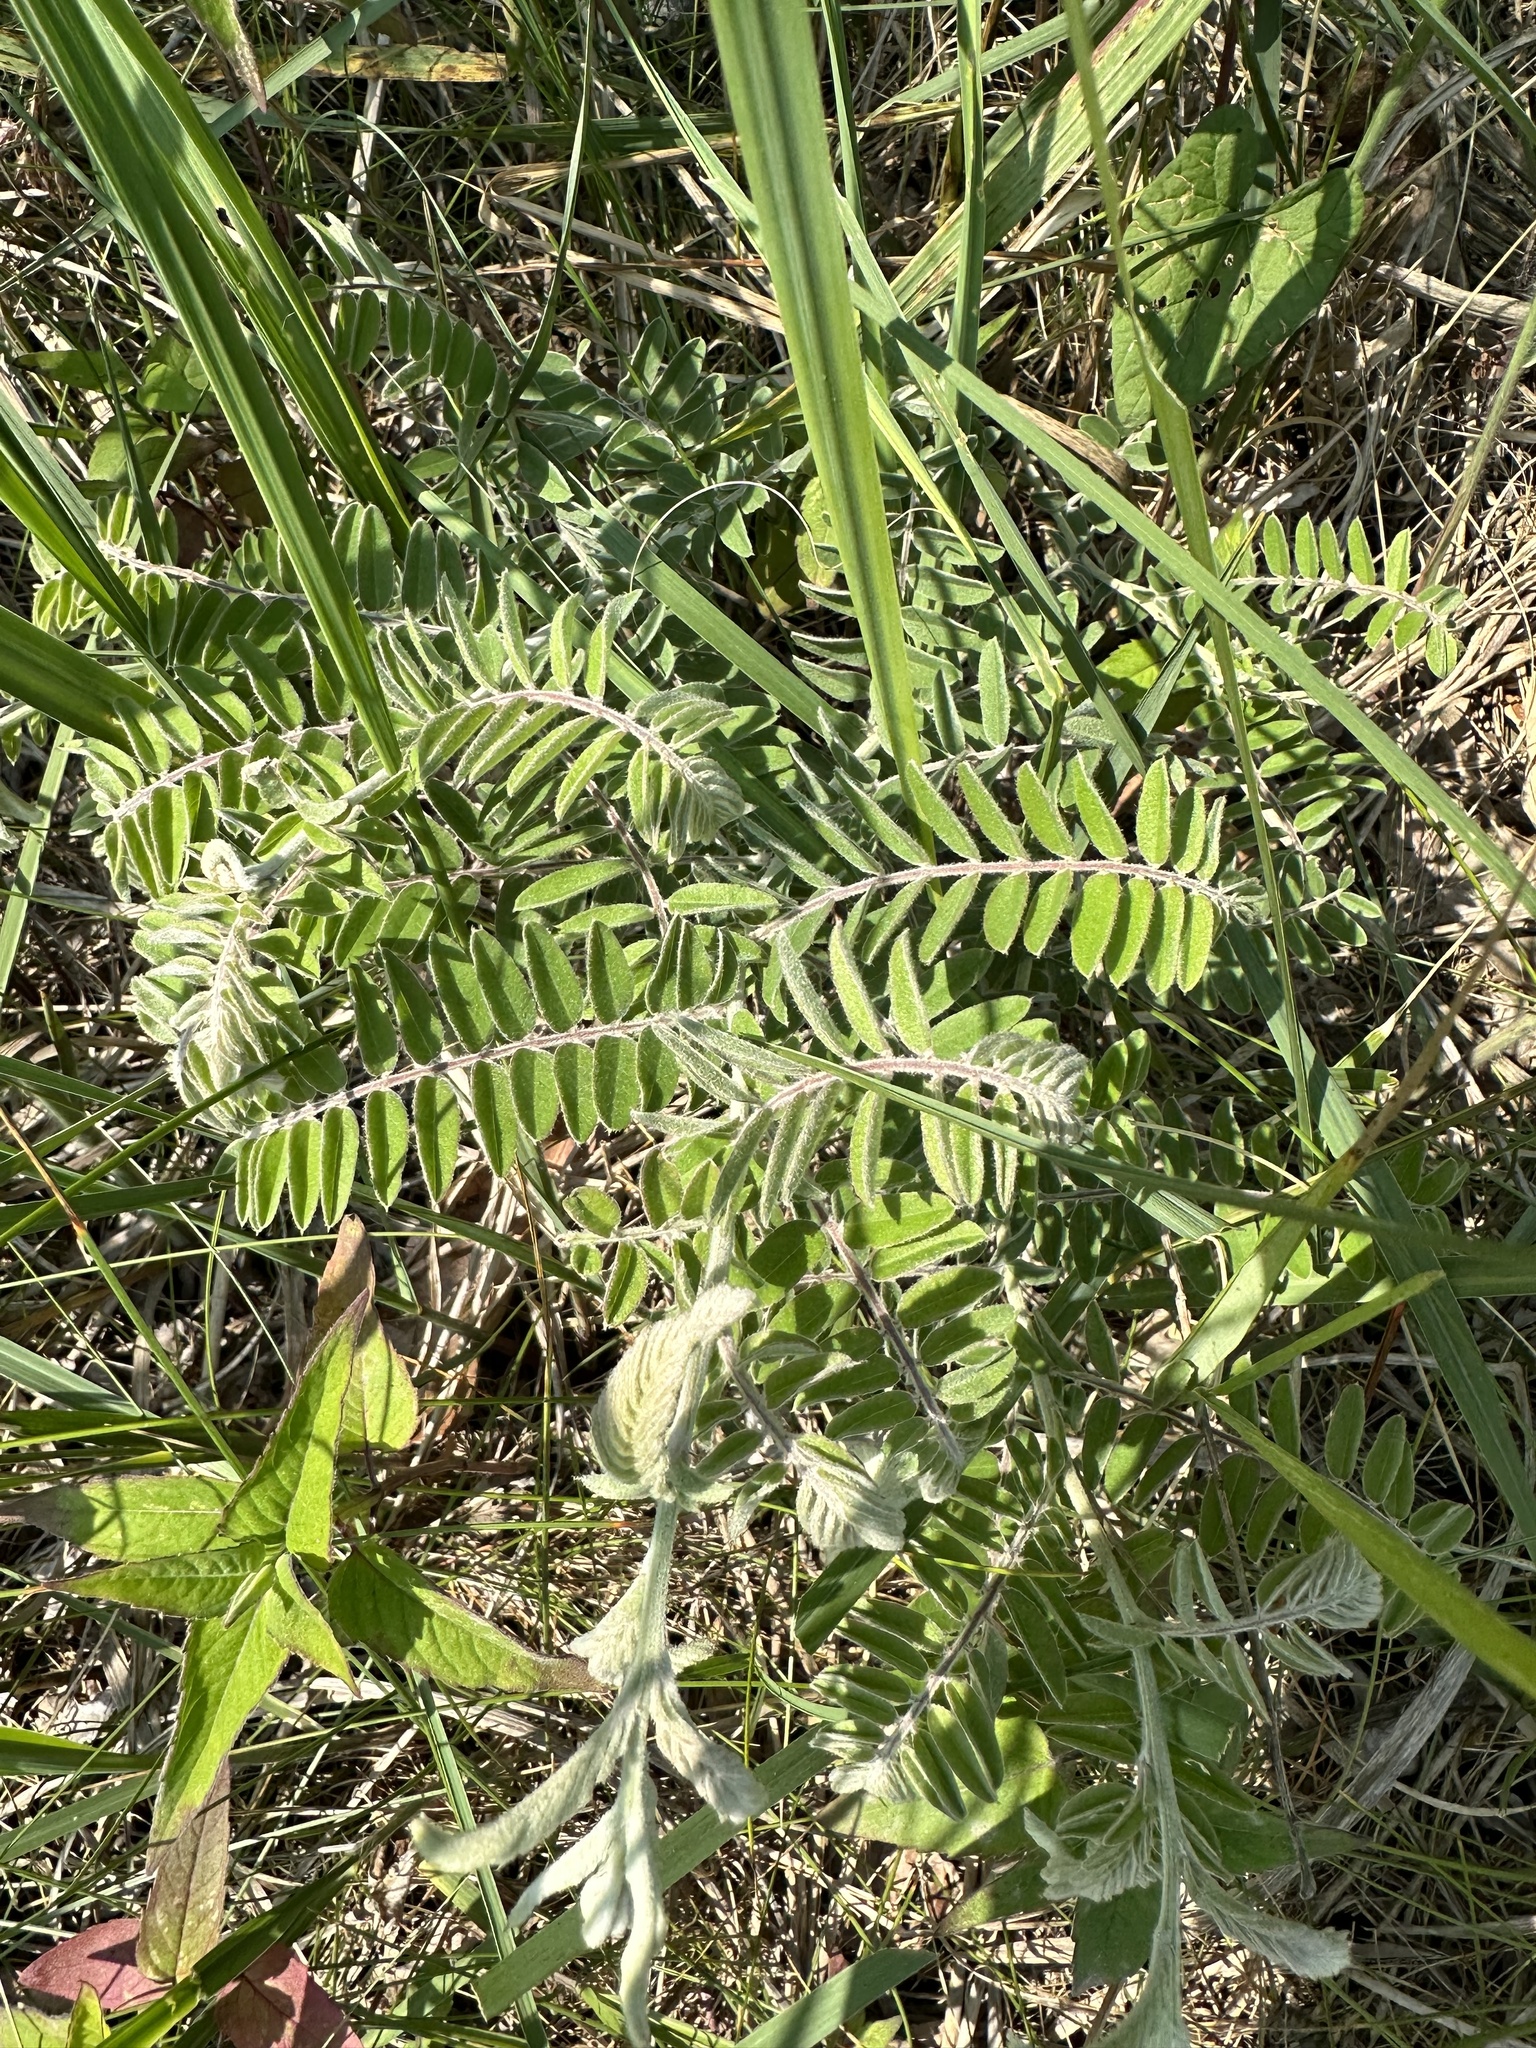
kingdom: Plantae
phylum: Tracheophyta
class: Magnoliopsida
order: Fabales
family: Fabaceae
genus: Amorpha
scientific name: Amorpha canescens
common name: Leadplant
